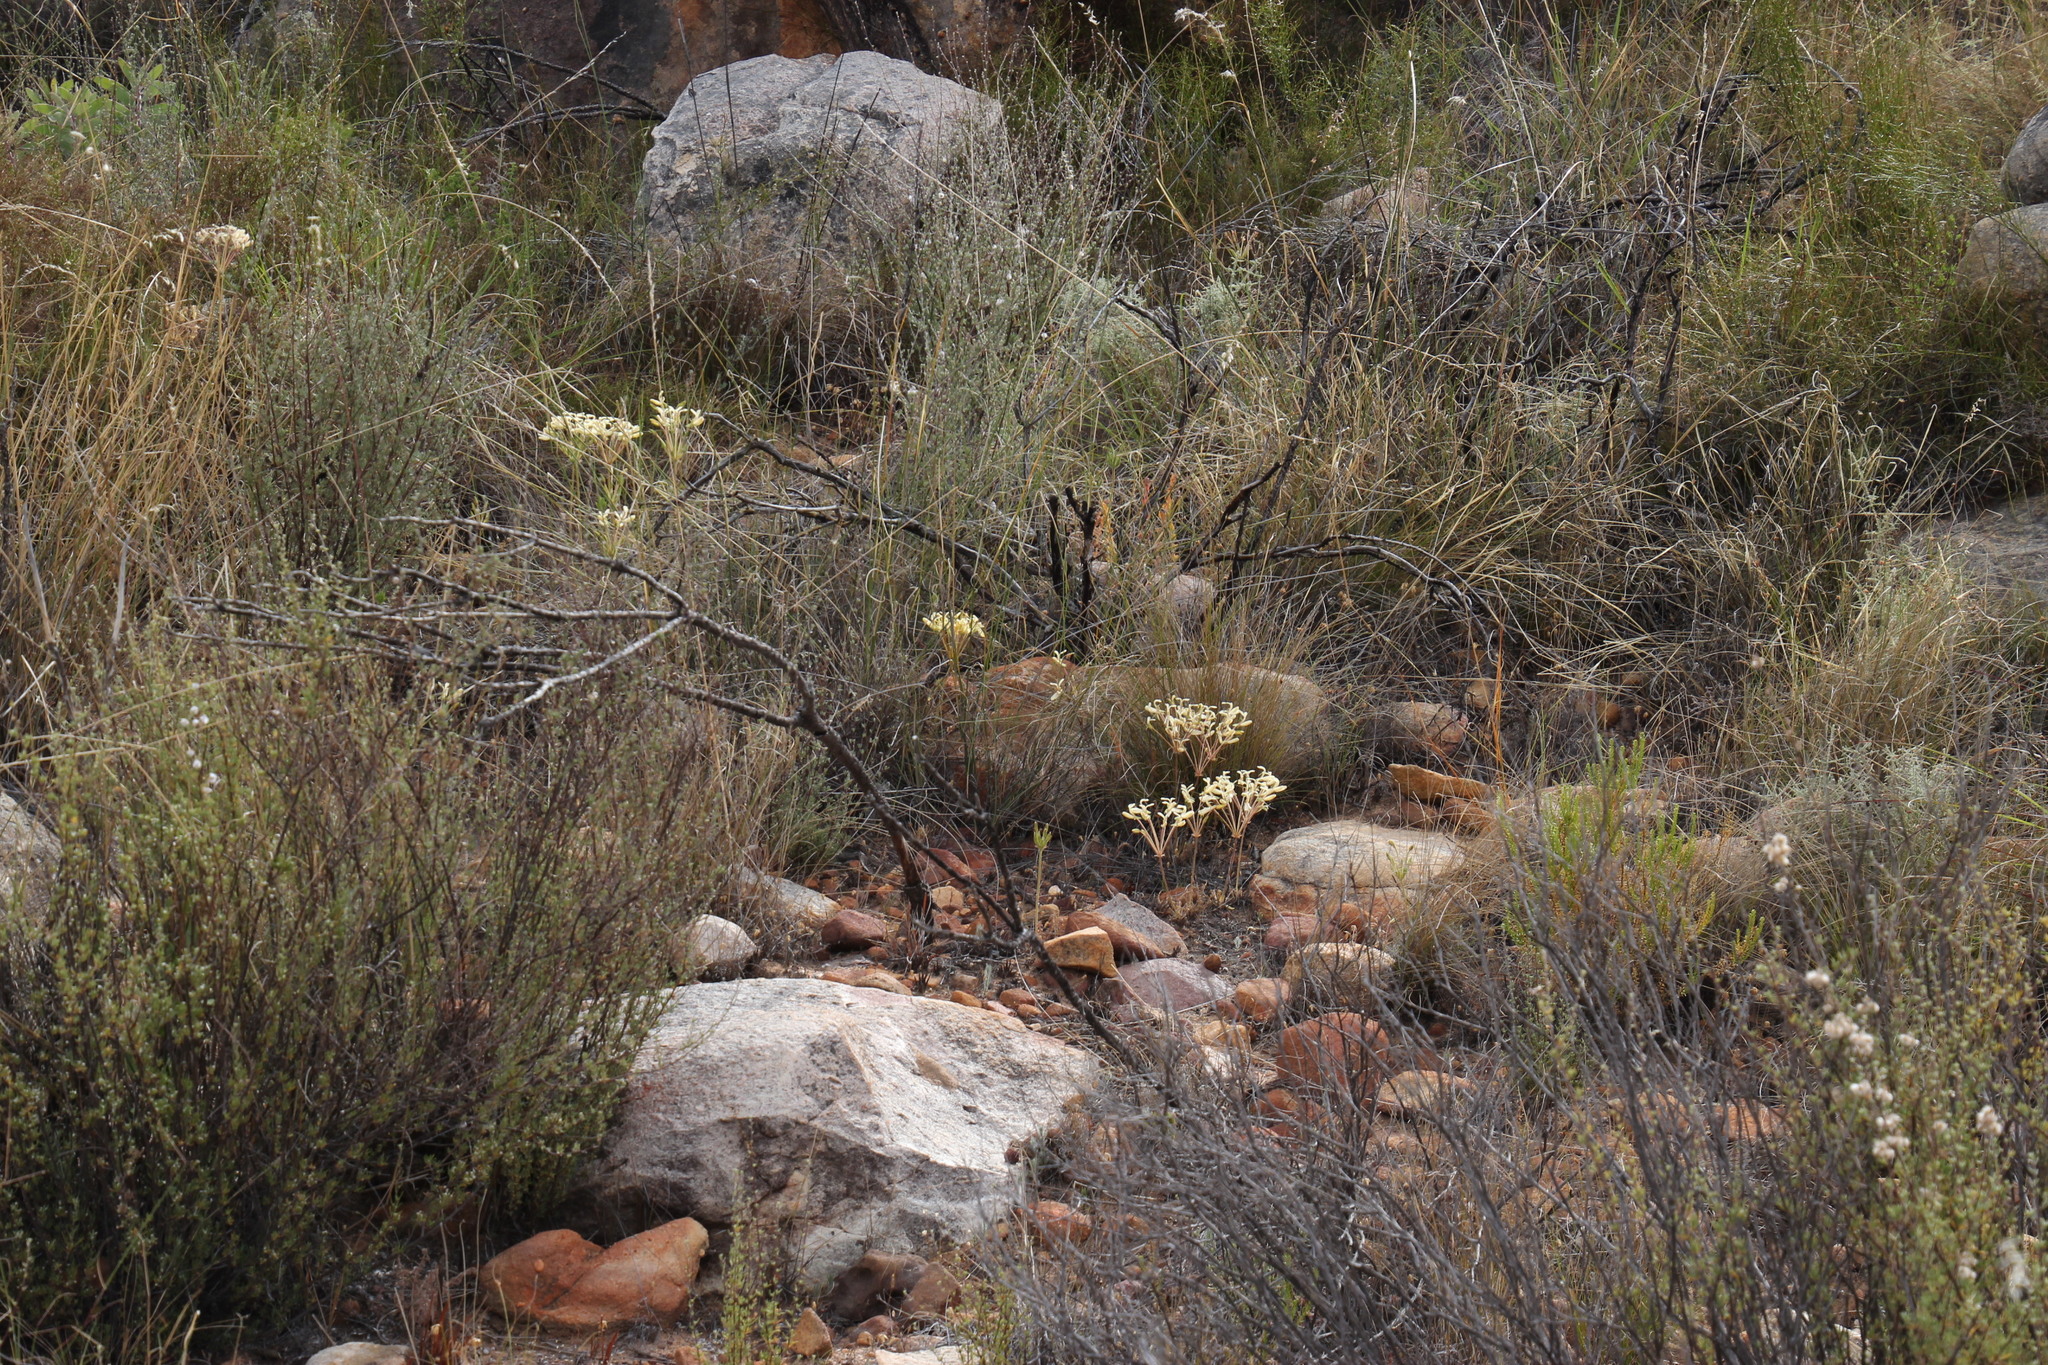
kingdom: Plantae
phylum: Tracheophyta
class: Magnoliopsida
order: Geraniales
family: Geraniaceae
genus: Pelargonium
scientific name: Pelargonium rapaceum
